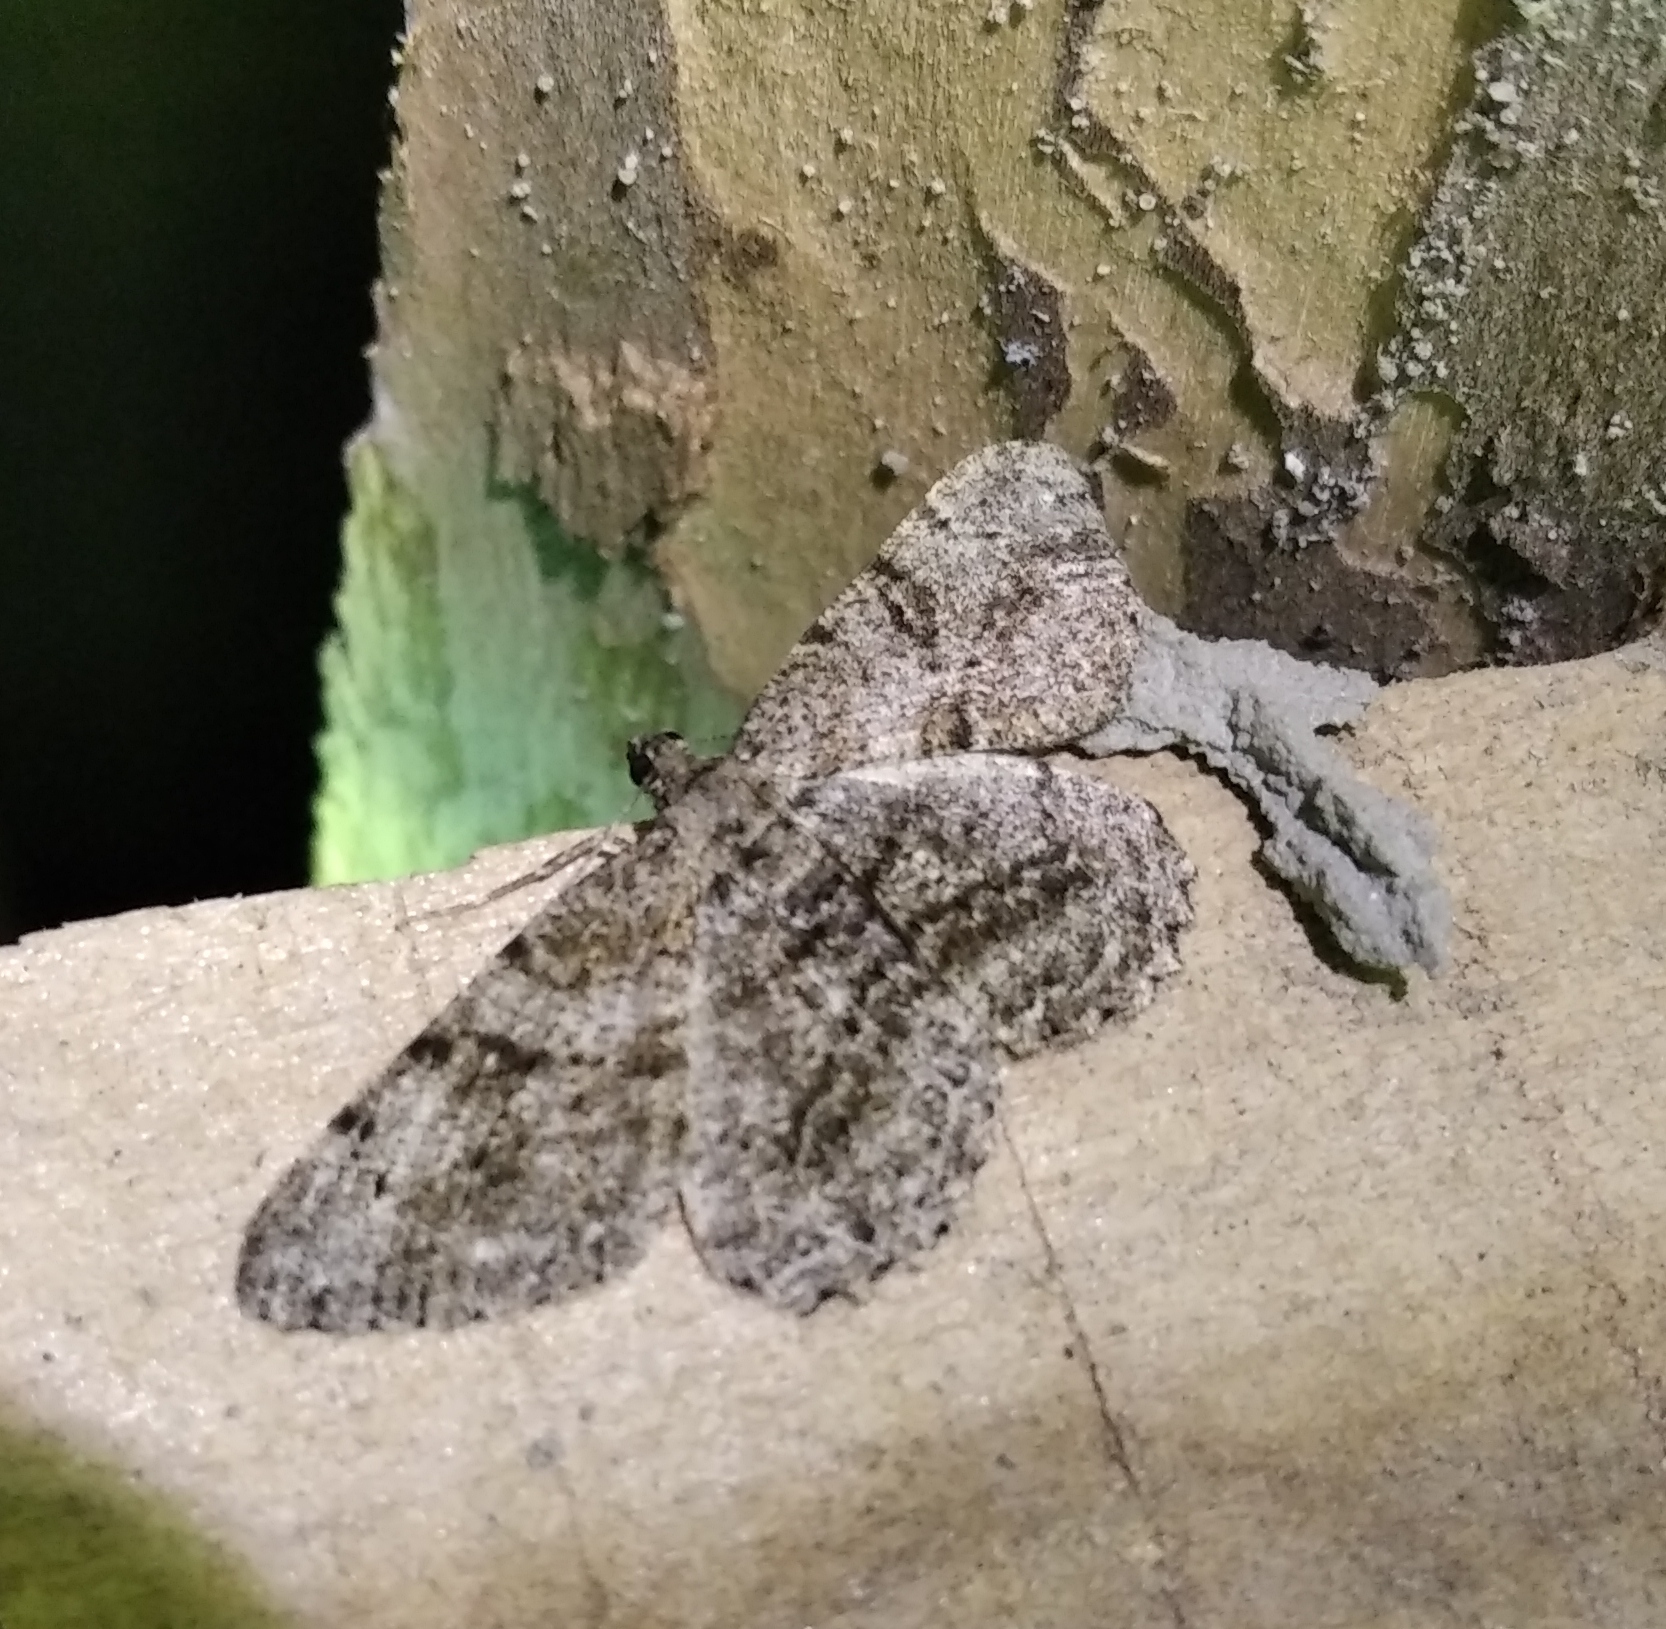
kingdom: Animalia
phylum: Arthropoda
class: Insecta
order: Lepidoptera
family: Geometridae
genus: Peribatodes
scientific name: Peribatodes rhomboidaria
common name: Willow beauty
